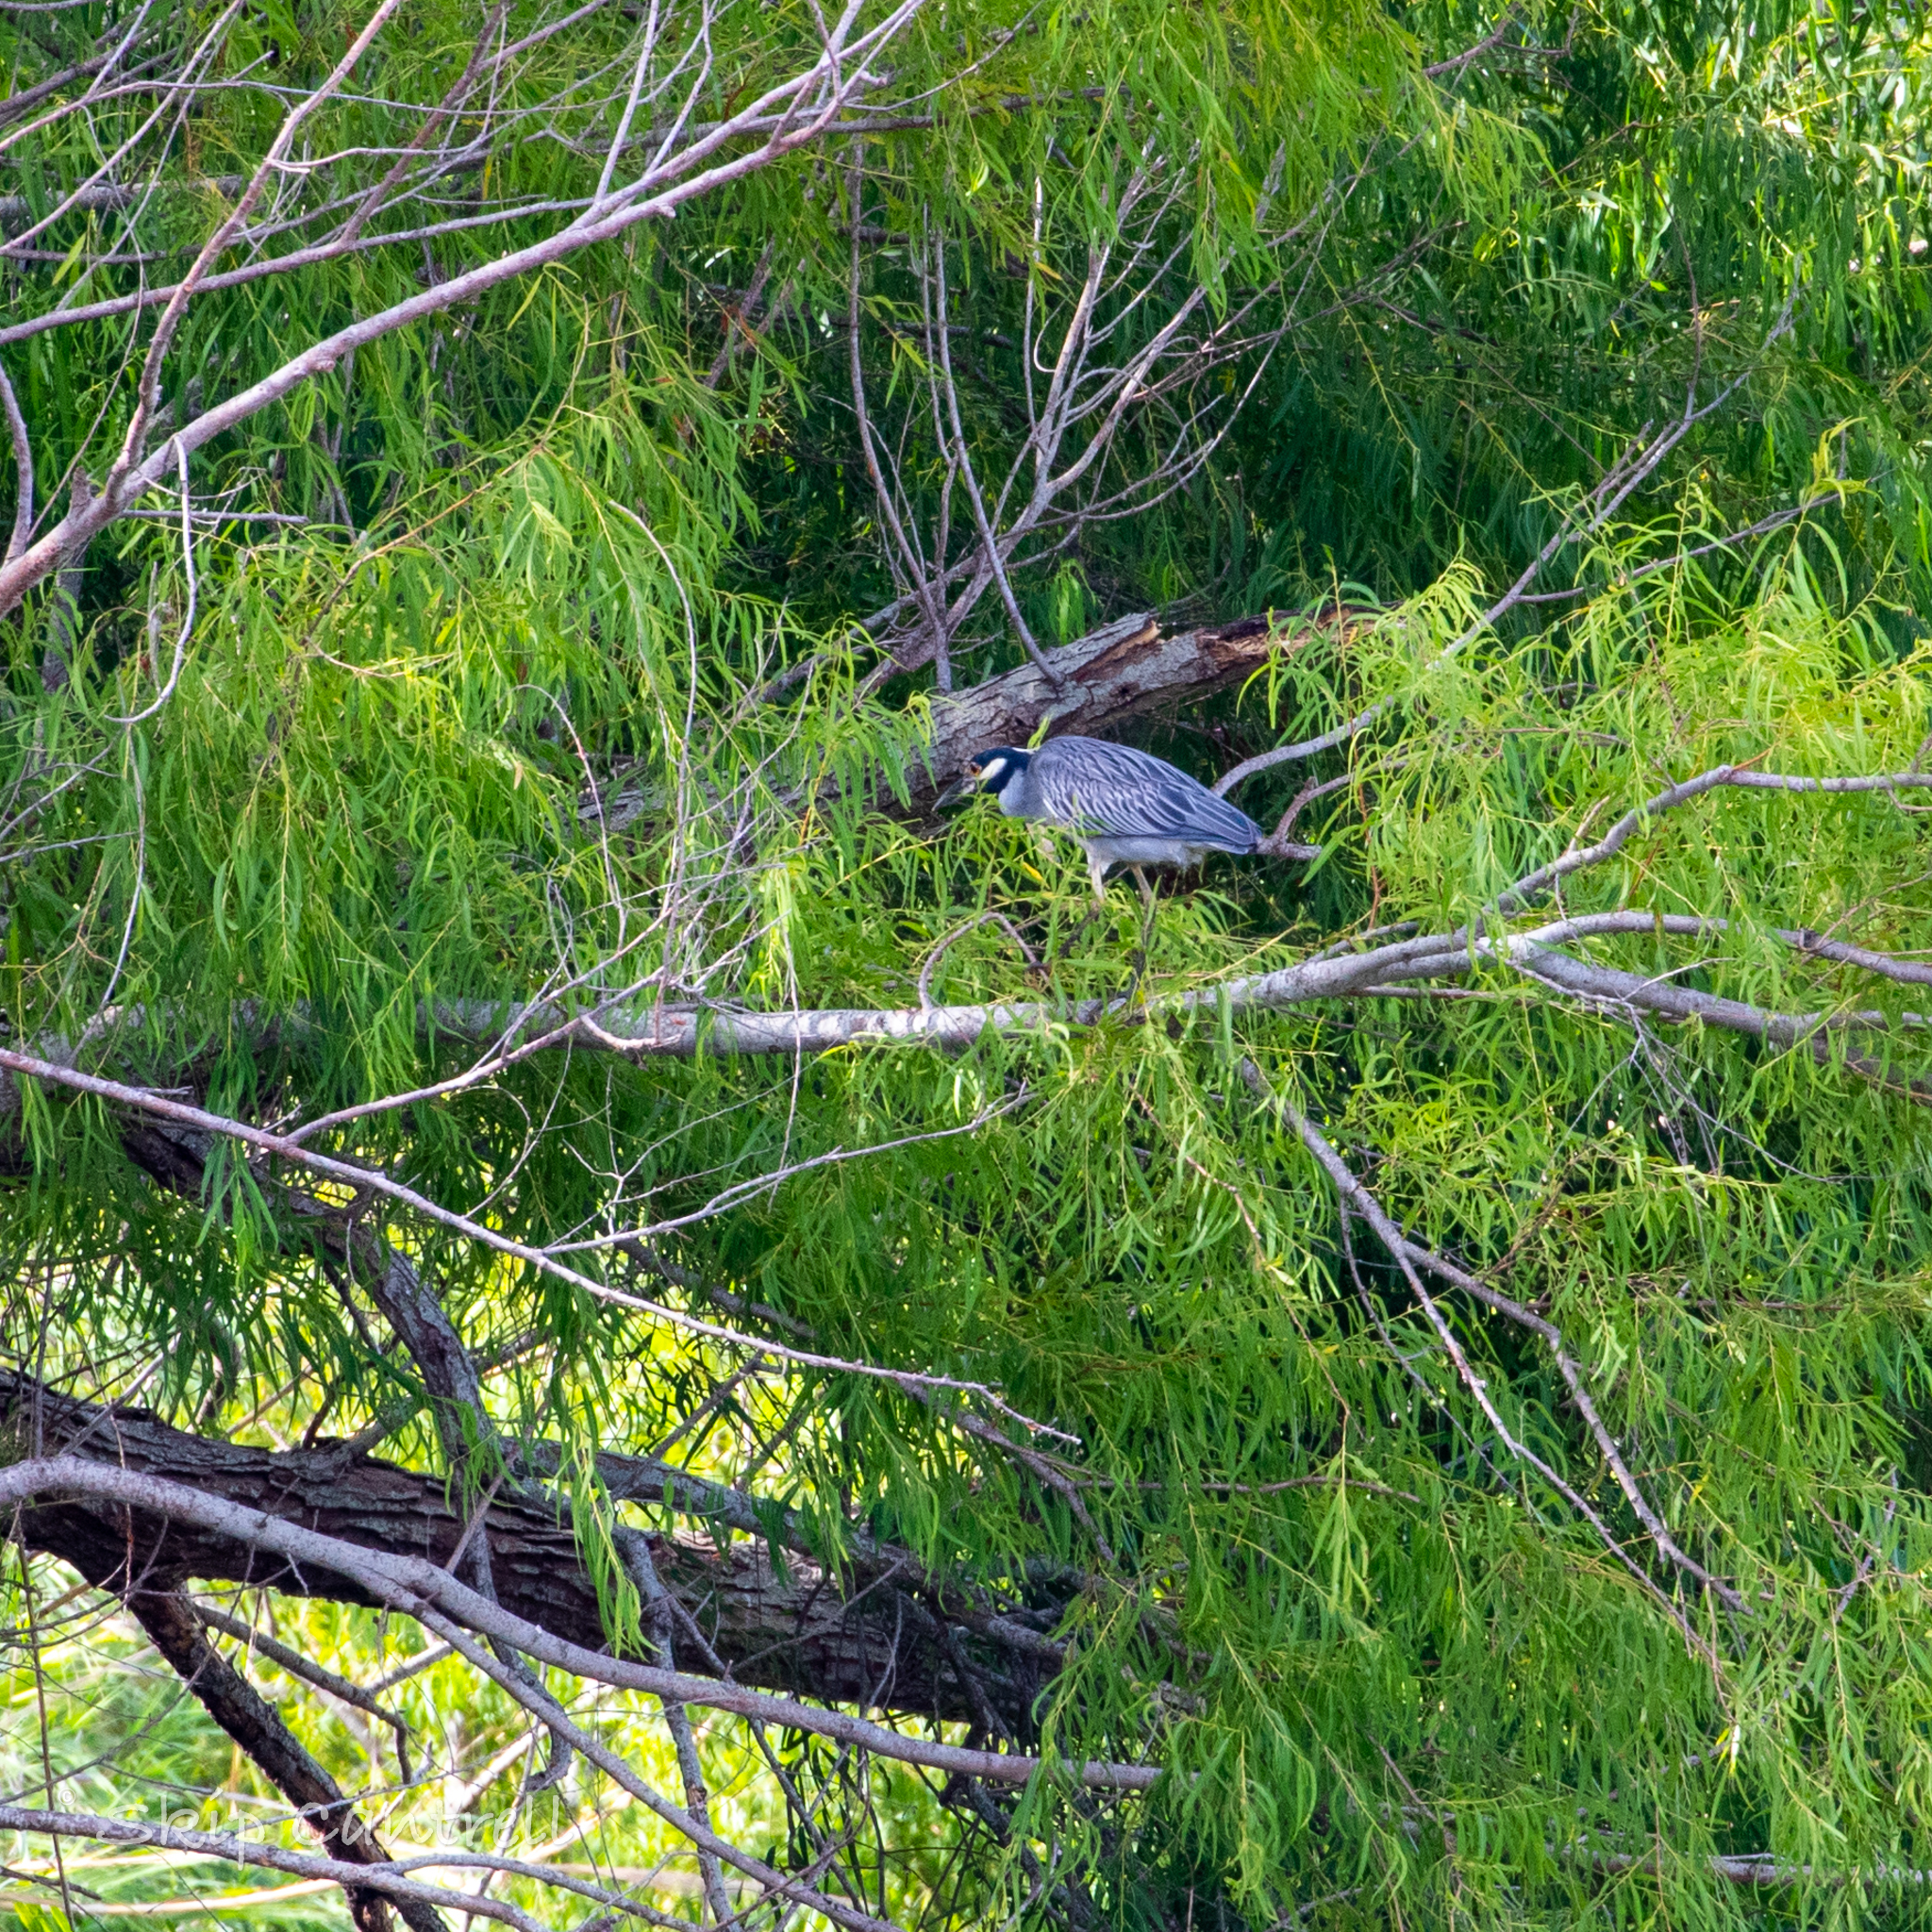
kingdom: Animalia
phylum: Chordata
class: Aves
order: Pelecaniformes
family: Ardeidae
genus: Nyctanassa
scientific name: Nyctanassa violacea
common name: Yellow-crowned night heron
